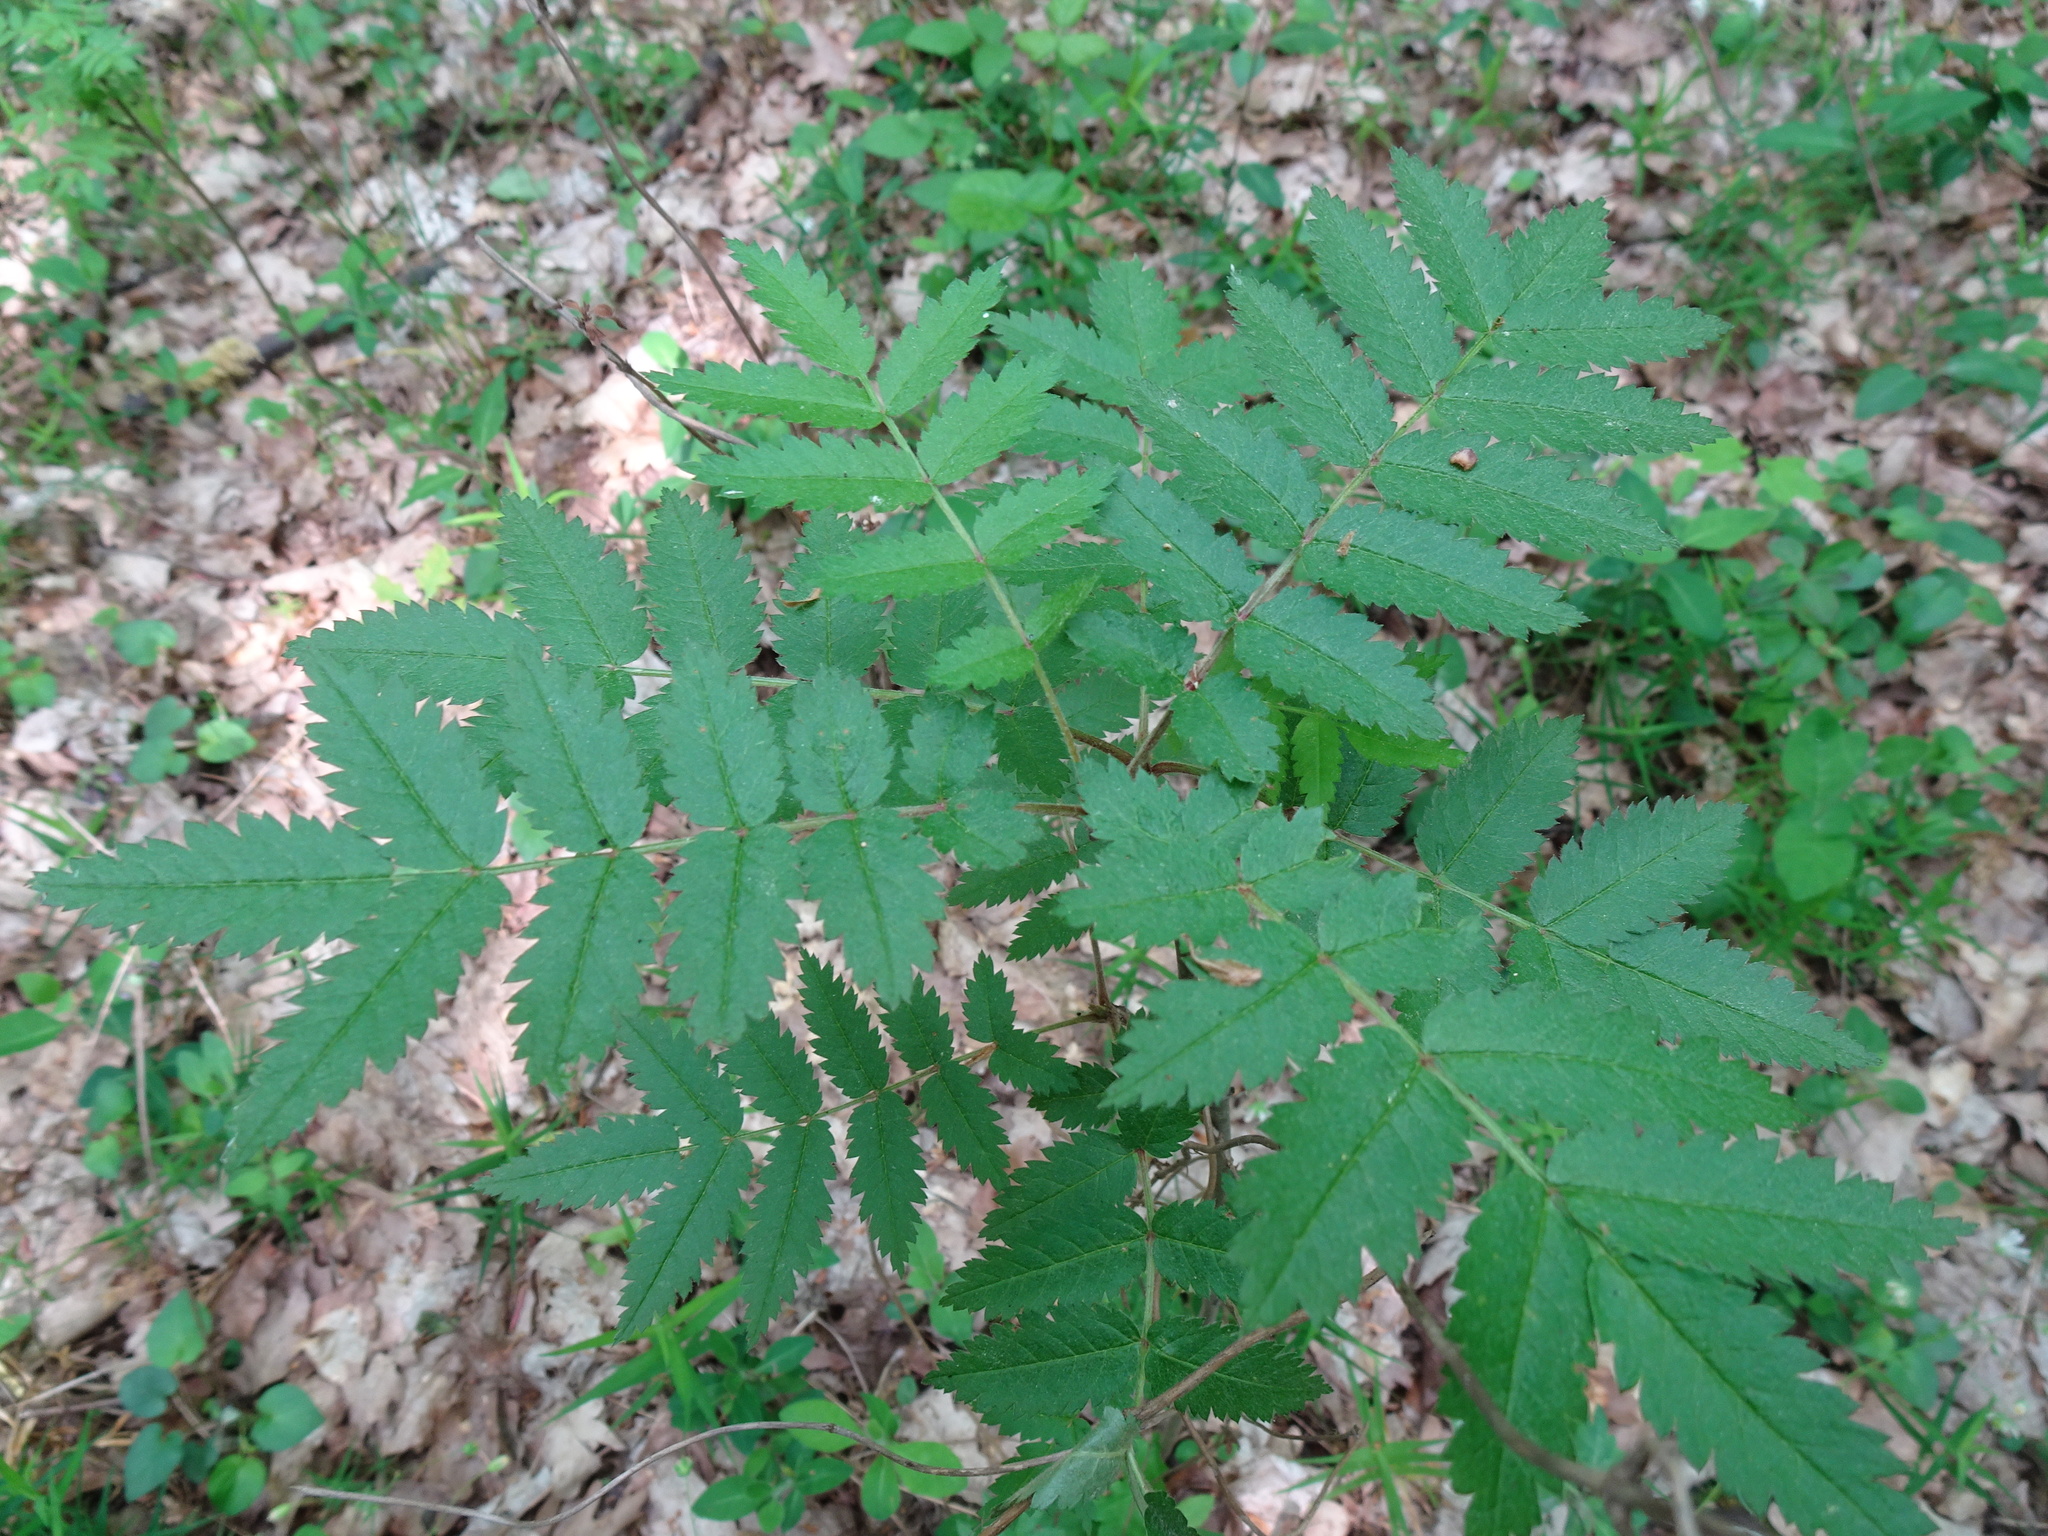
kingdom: Plantae
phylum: Tracheophyta
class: Magnoliopsida
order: Rosales
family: Rosaceae
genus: Sorbus
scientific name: Sorbus aucuparia
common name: Rowan
